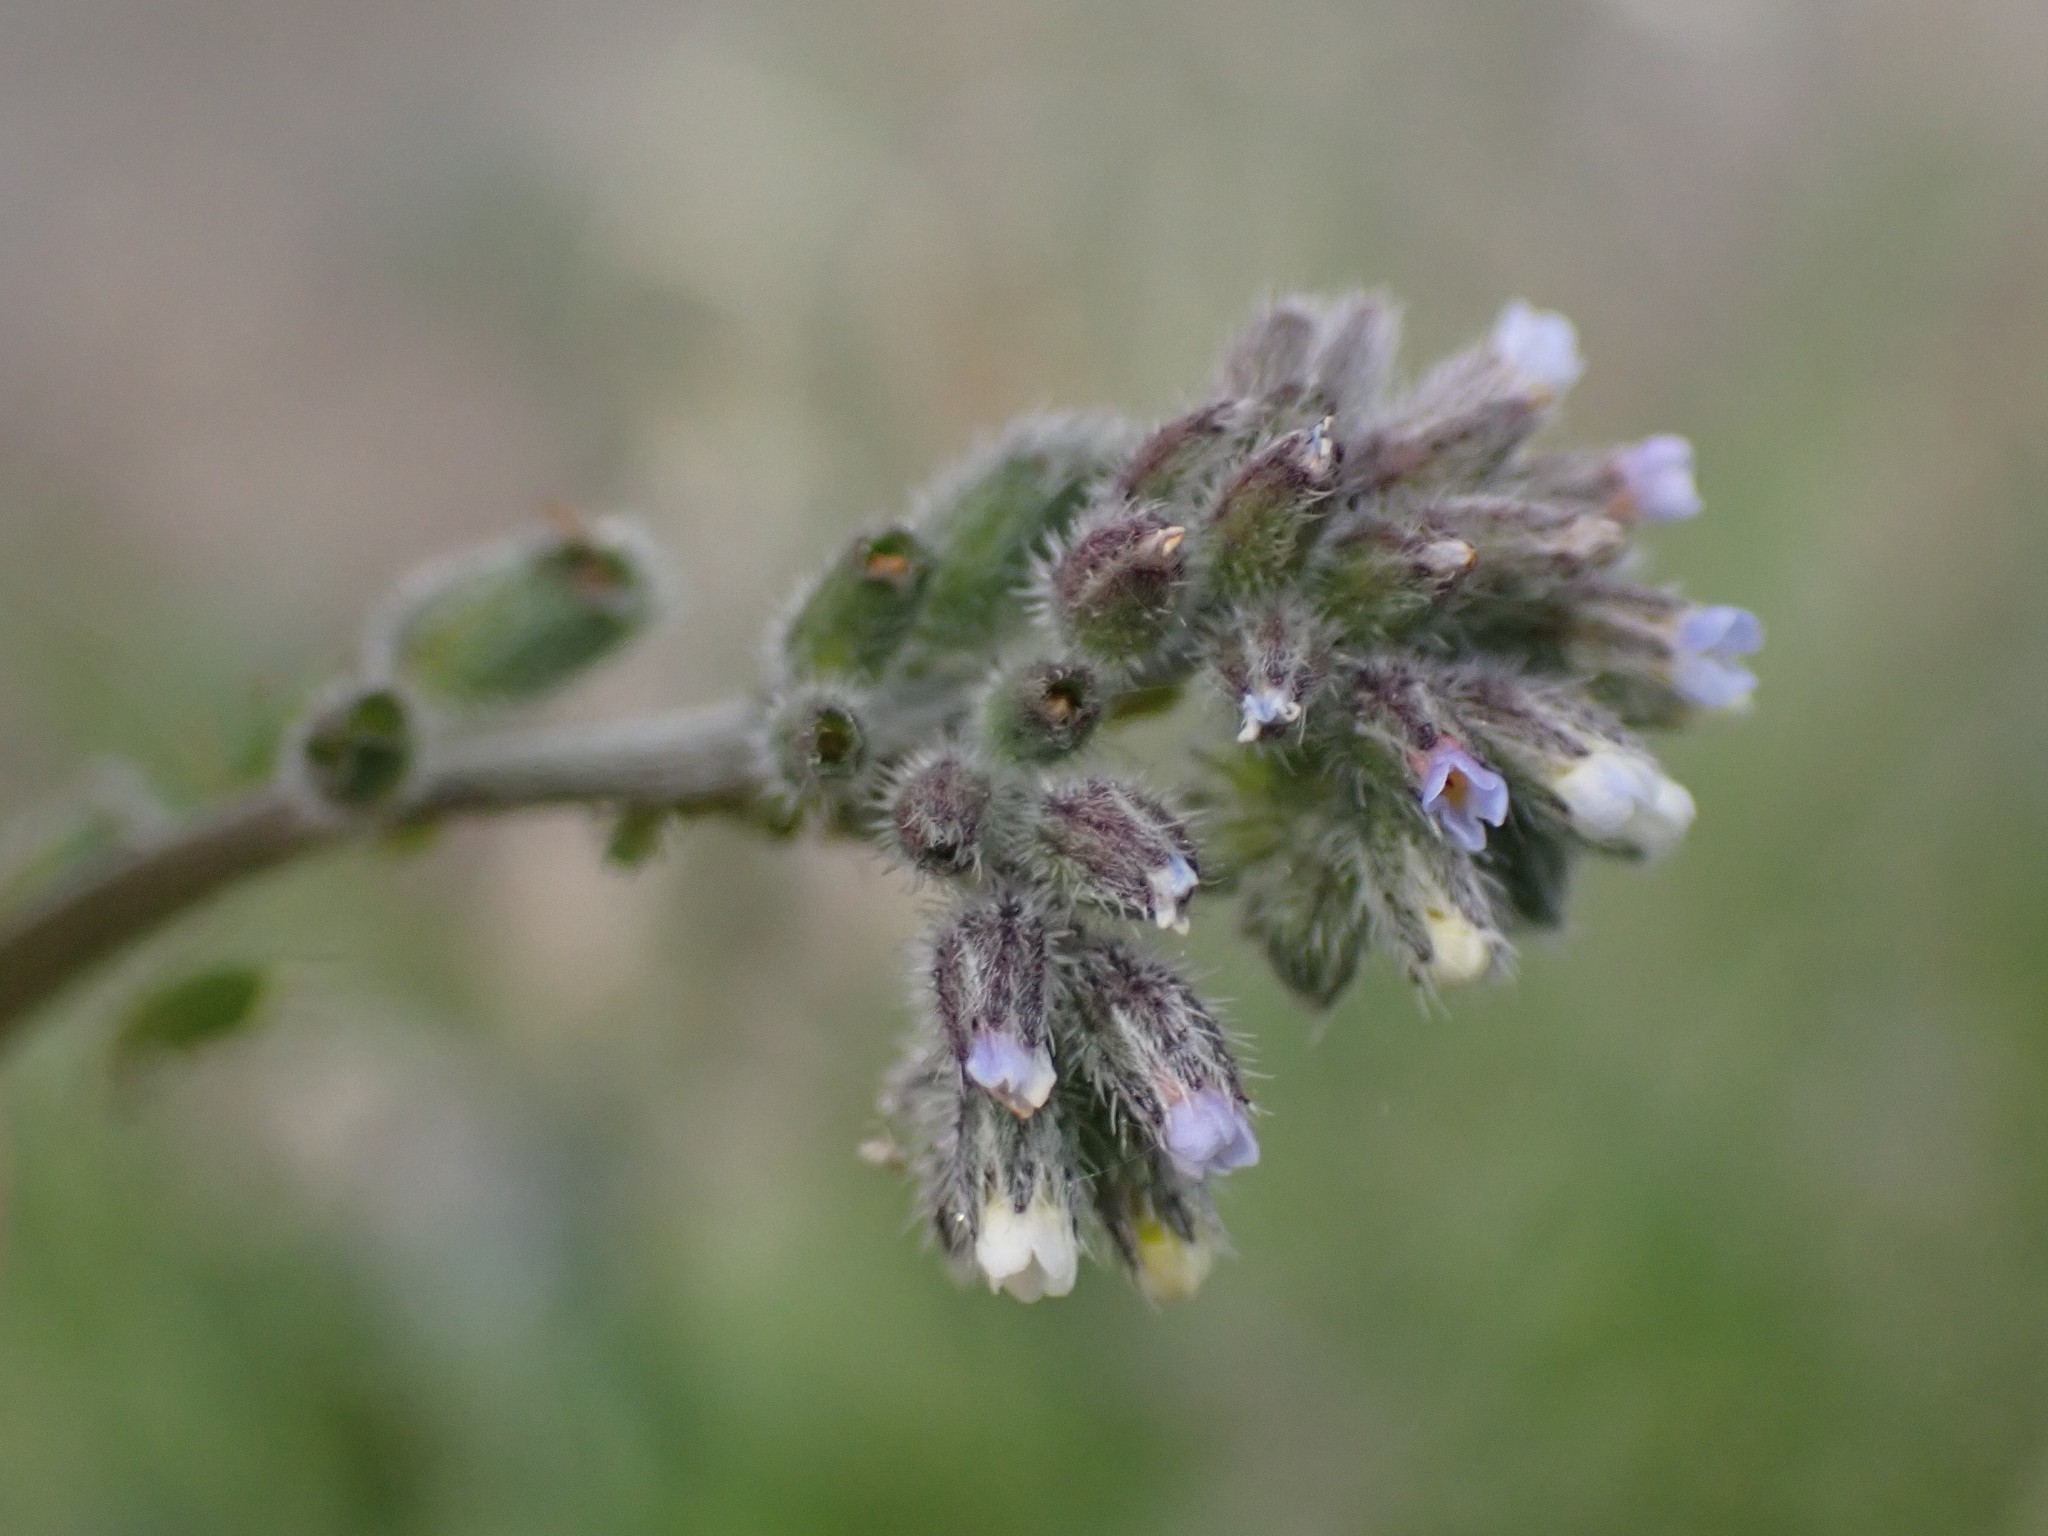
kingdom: Plantae
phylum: Tracheophyta
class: Magnoliopsida
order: Boraginales
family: Boraginaceae
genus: Myosotis
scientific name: Myosotis discolor
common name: Changing forget-me-not
